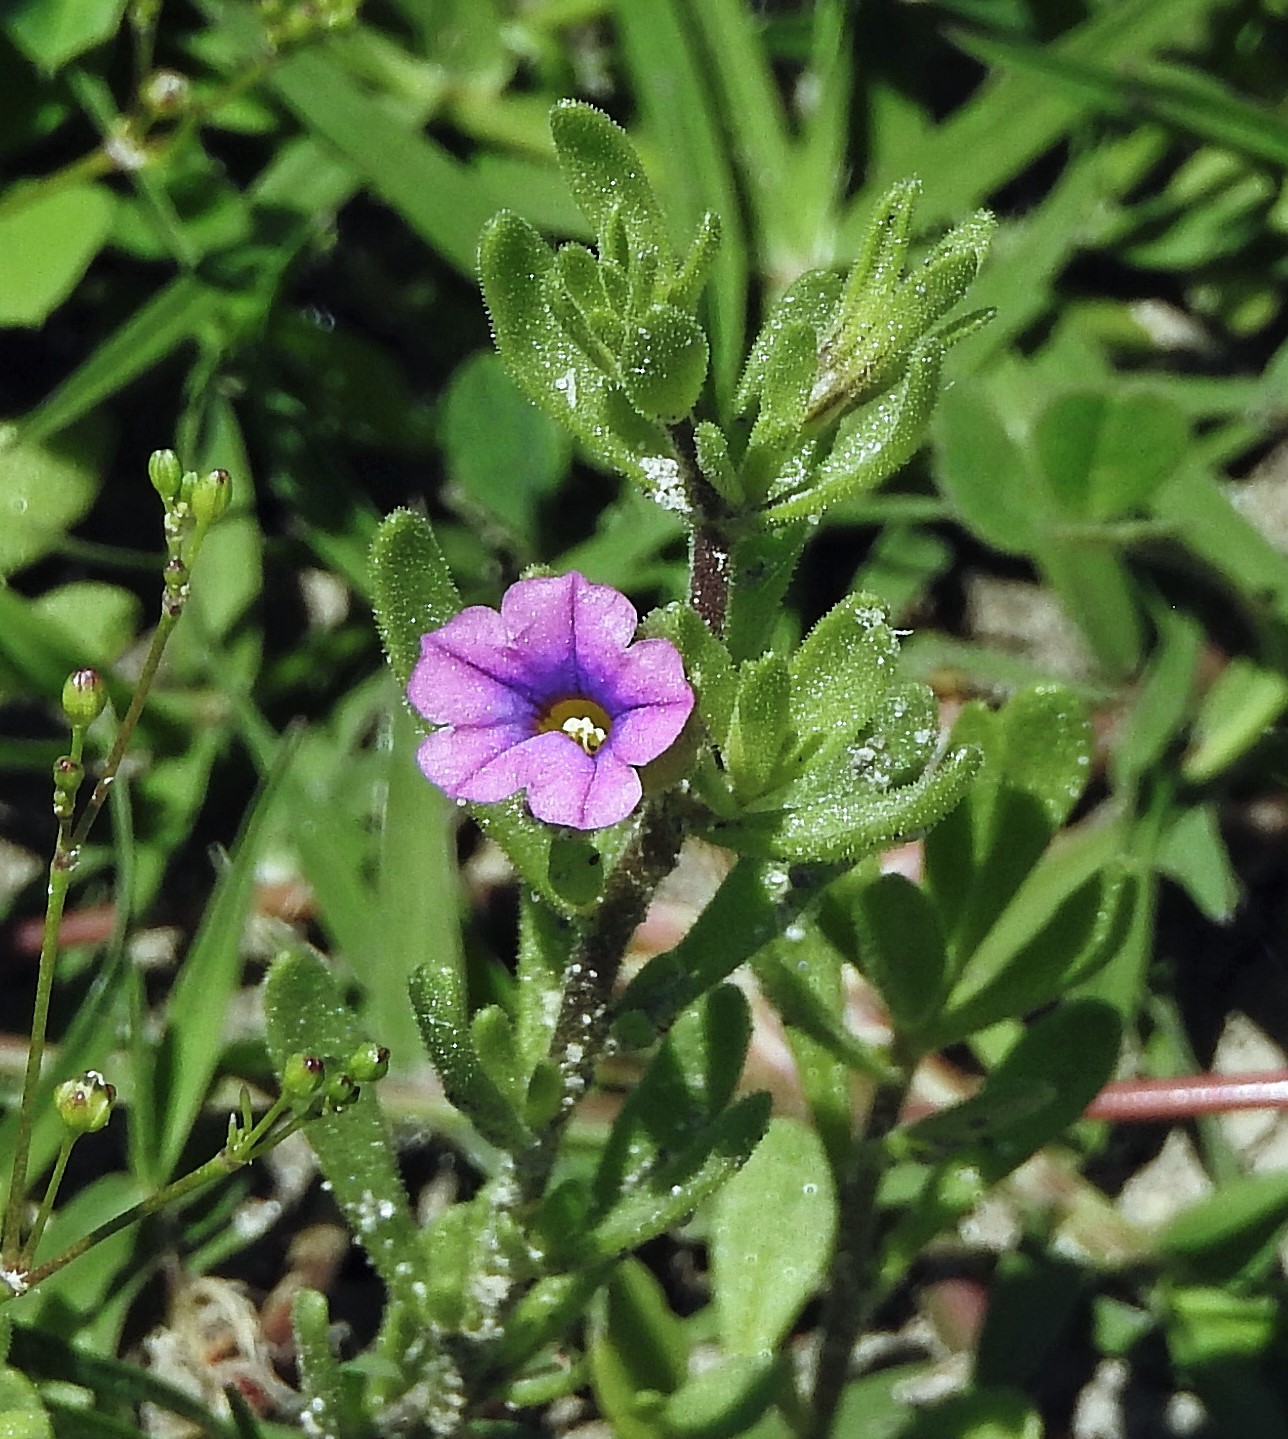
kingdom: Plantae
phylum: Tracheophyta
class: Magnoliopsida
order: Solanales
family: Solanaceae
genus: Calibrachoa
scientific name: Calibrachoa parviflora
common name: Seaside petunia
